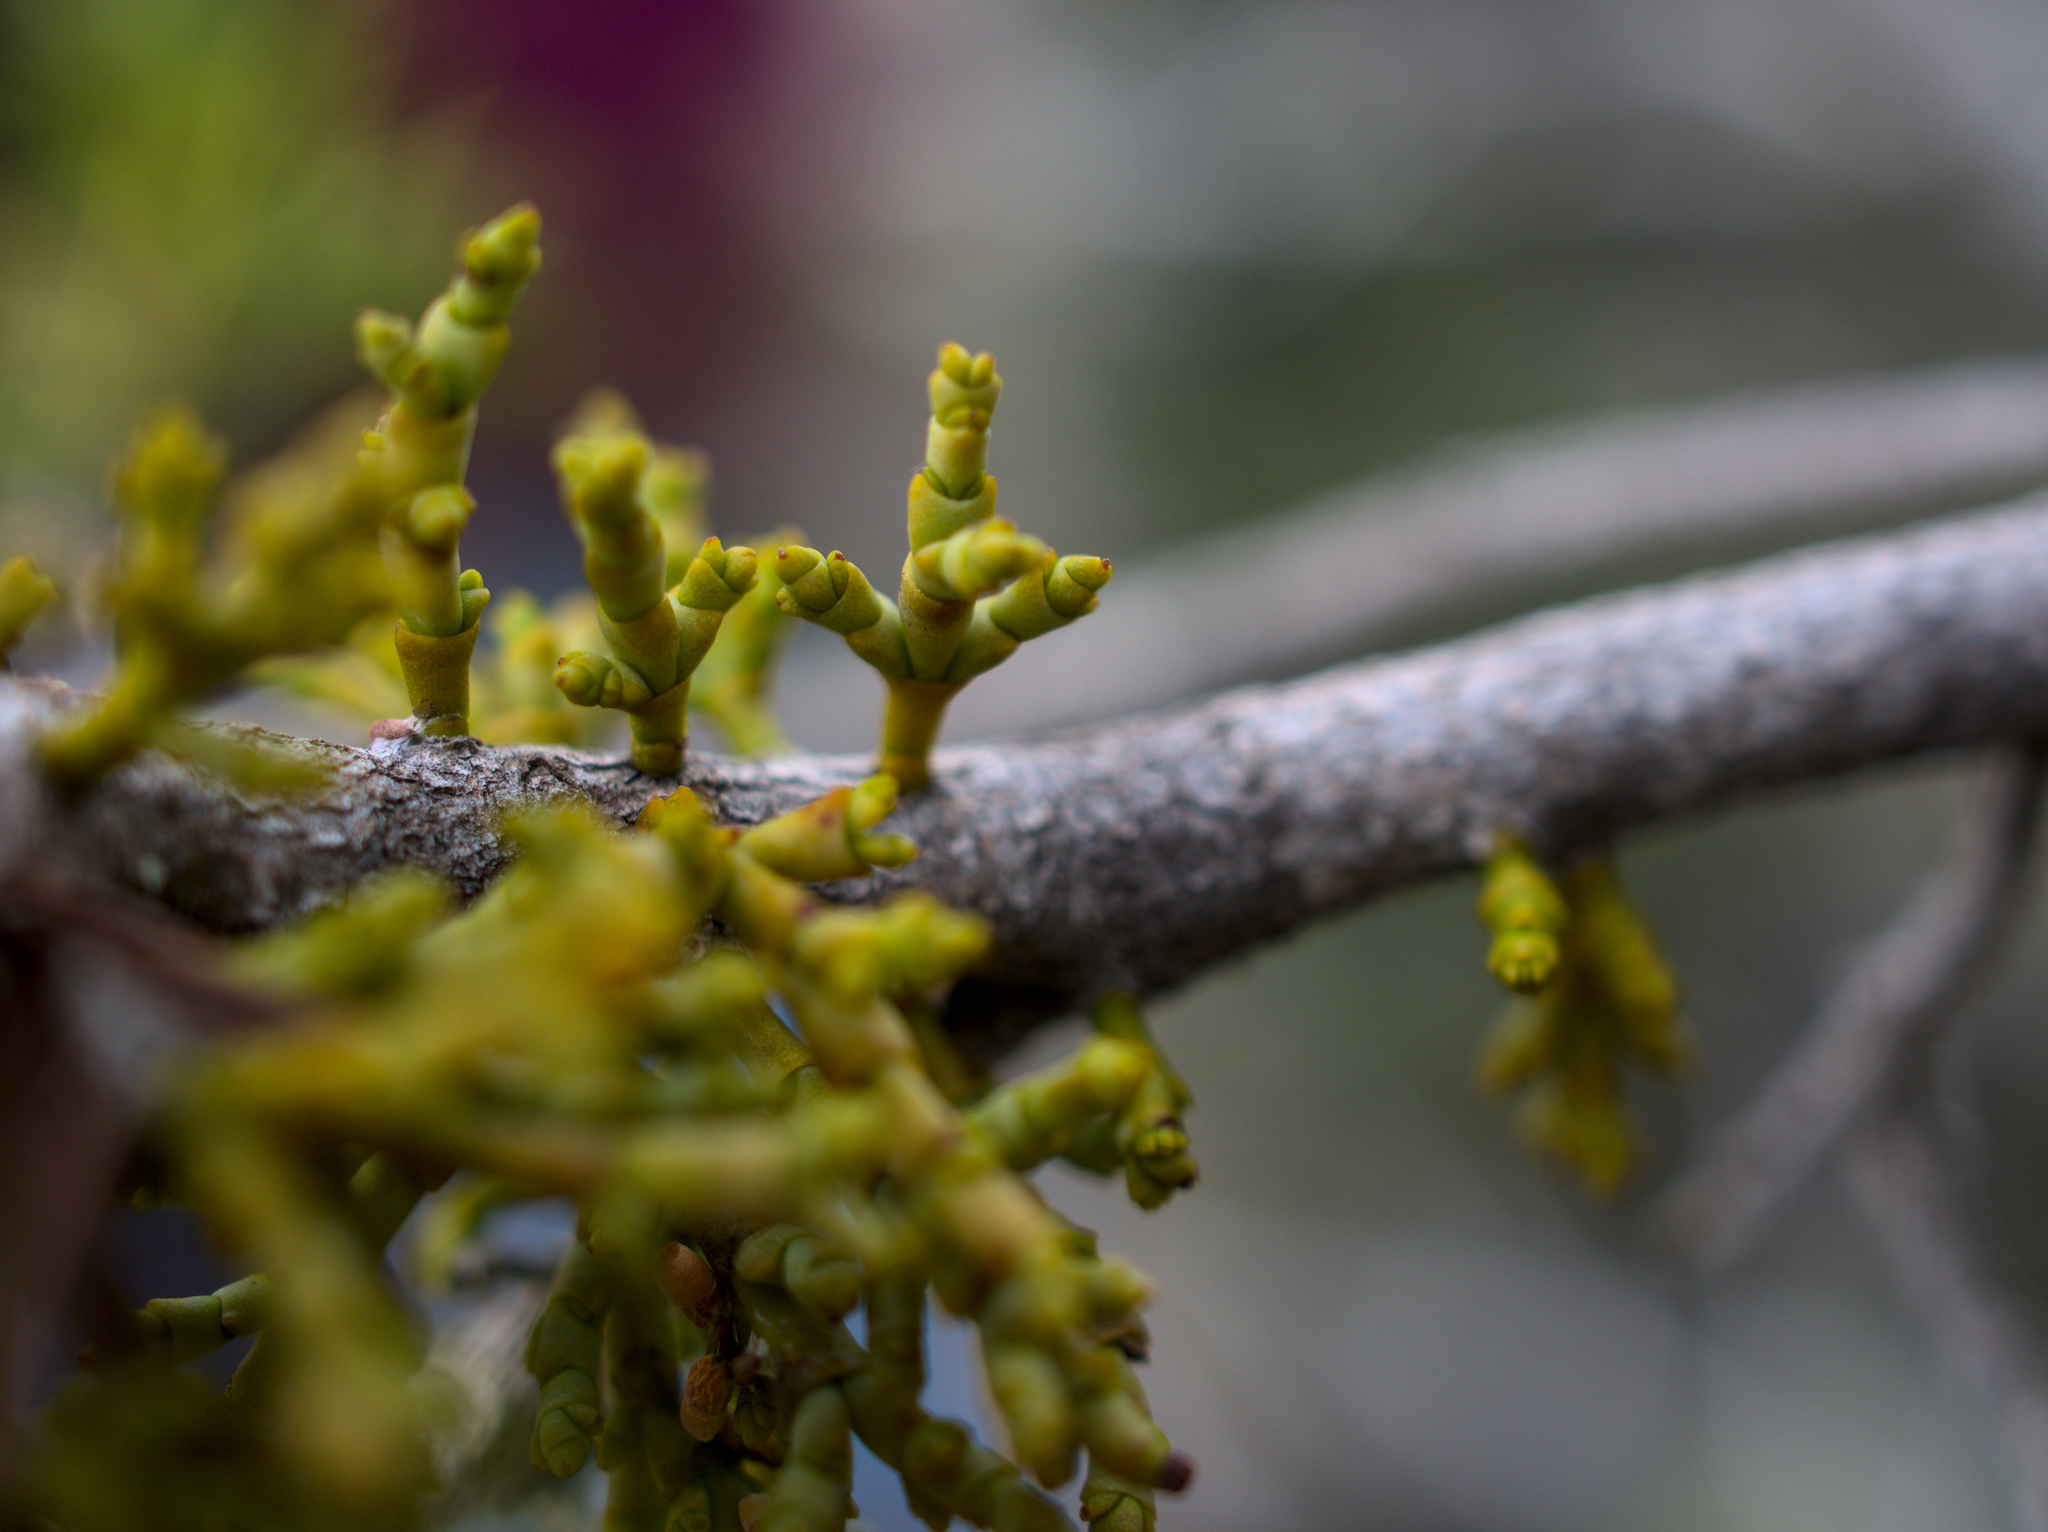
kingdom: Plantae
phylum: Tracheophyta
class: Magnoliopsida
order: Santalales
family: Viscaceae
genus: Arceuthobium
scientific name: Arceuthobium oxycedri
